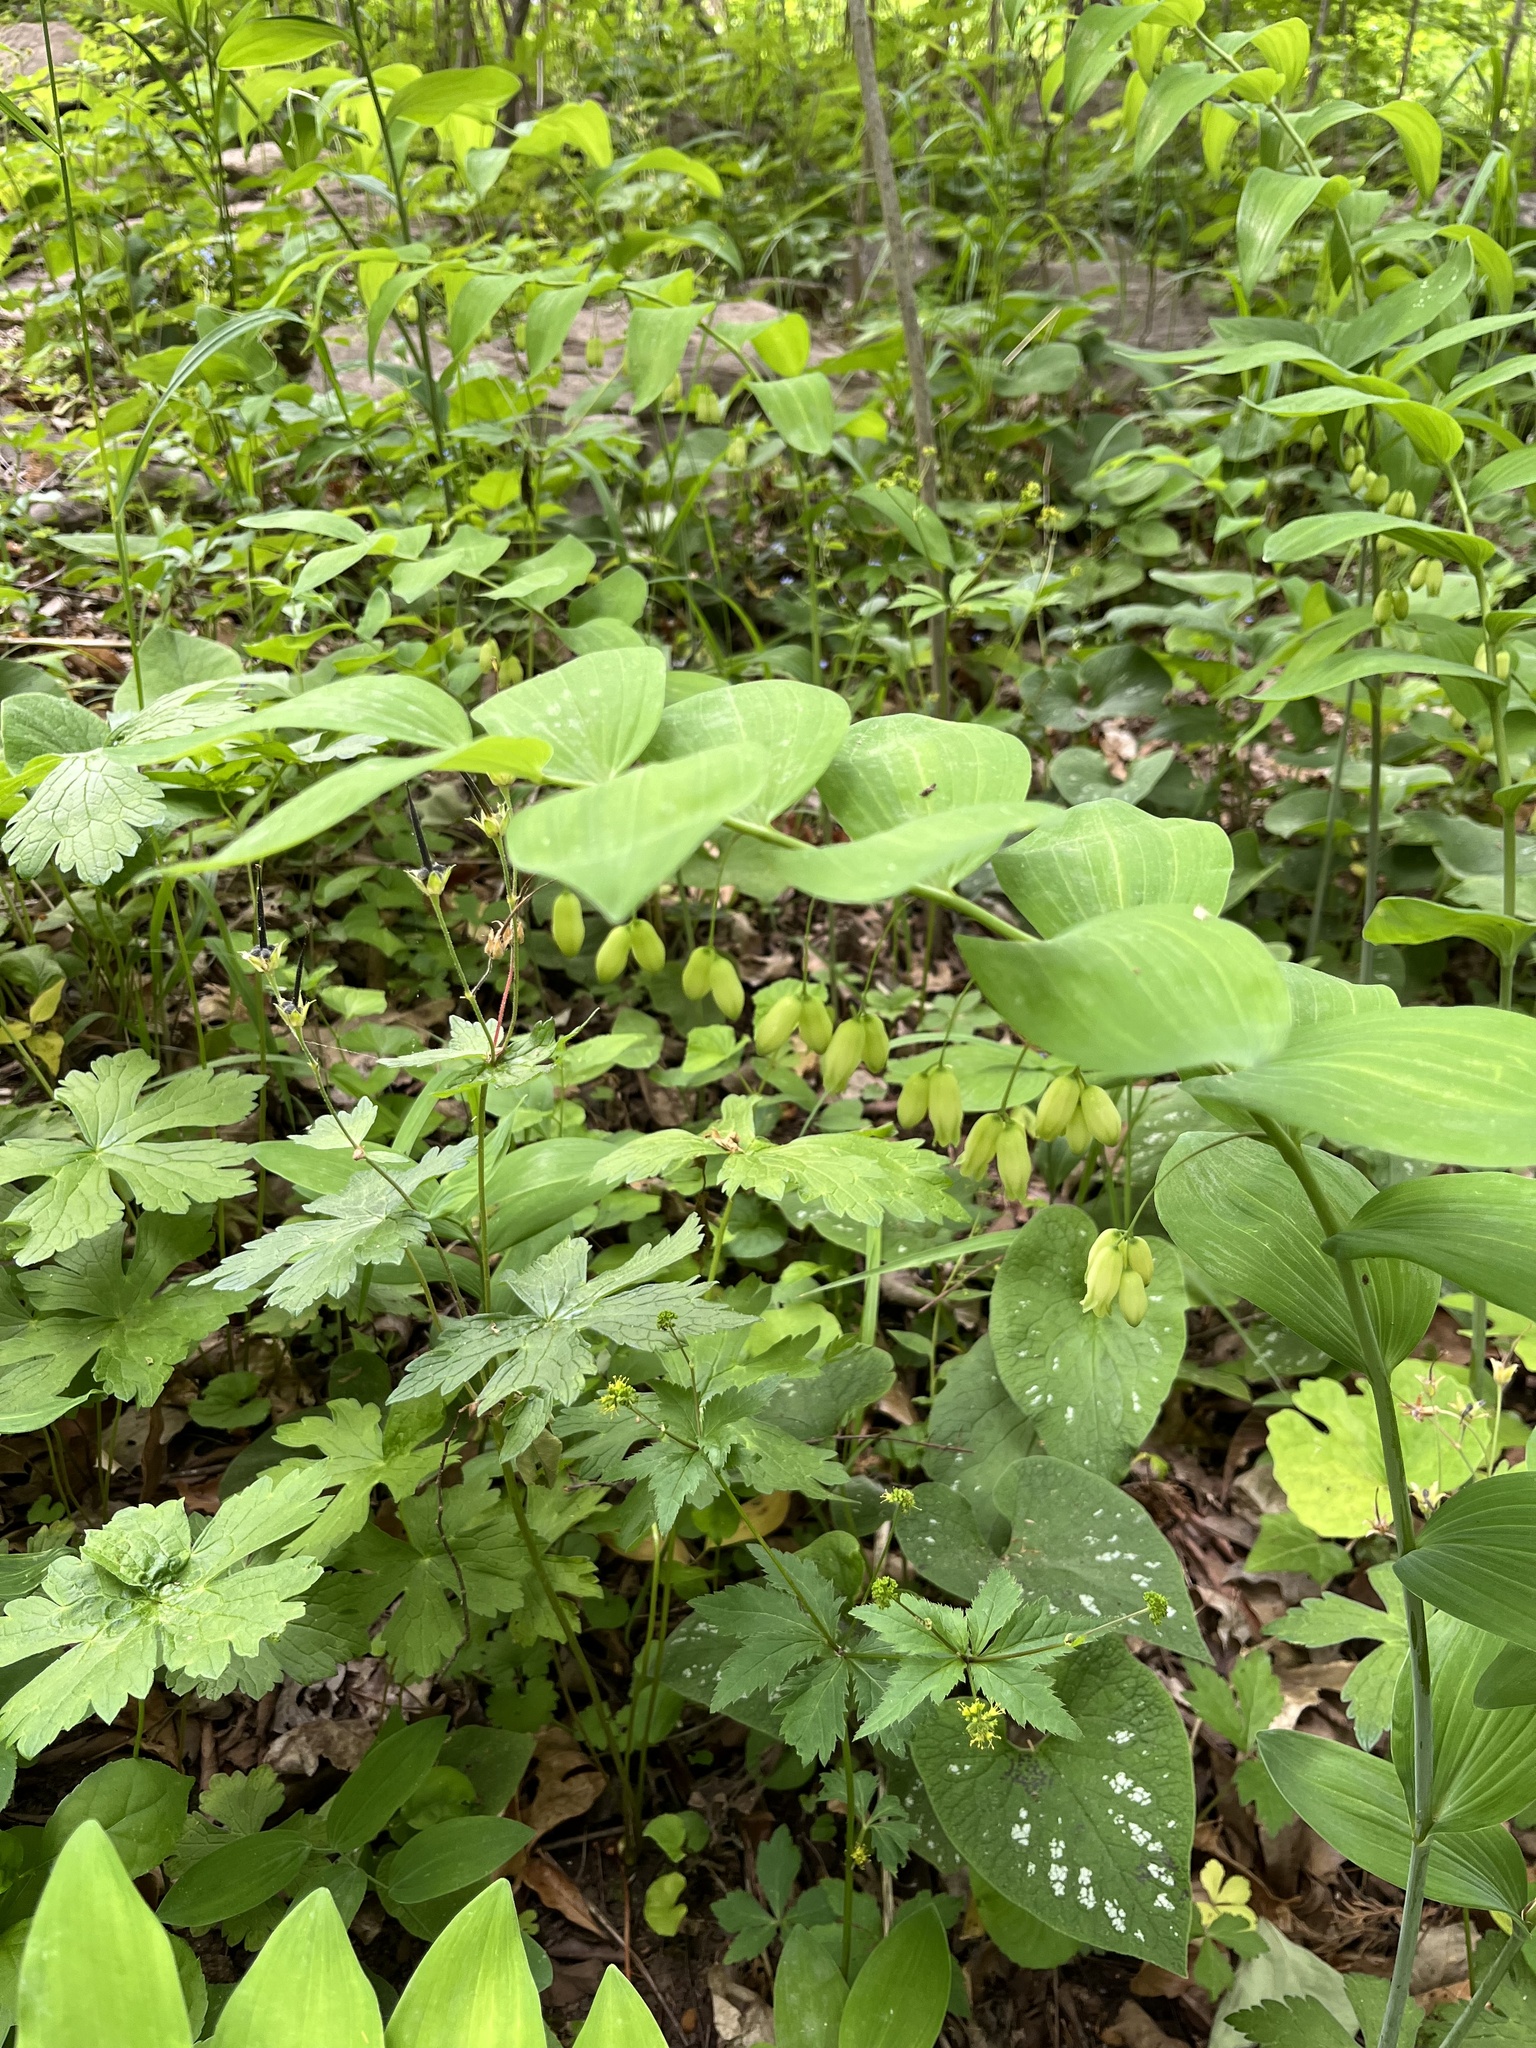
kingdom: Plantae
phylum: Tracheophyta
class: Liliopsida
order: Asparagales
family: Asparagaceae
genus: Polygonatum
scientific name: Polygonatum biflorum
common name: American solomon's-seal
